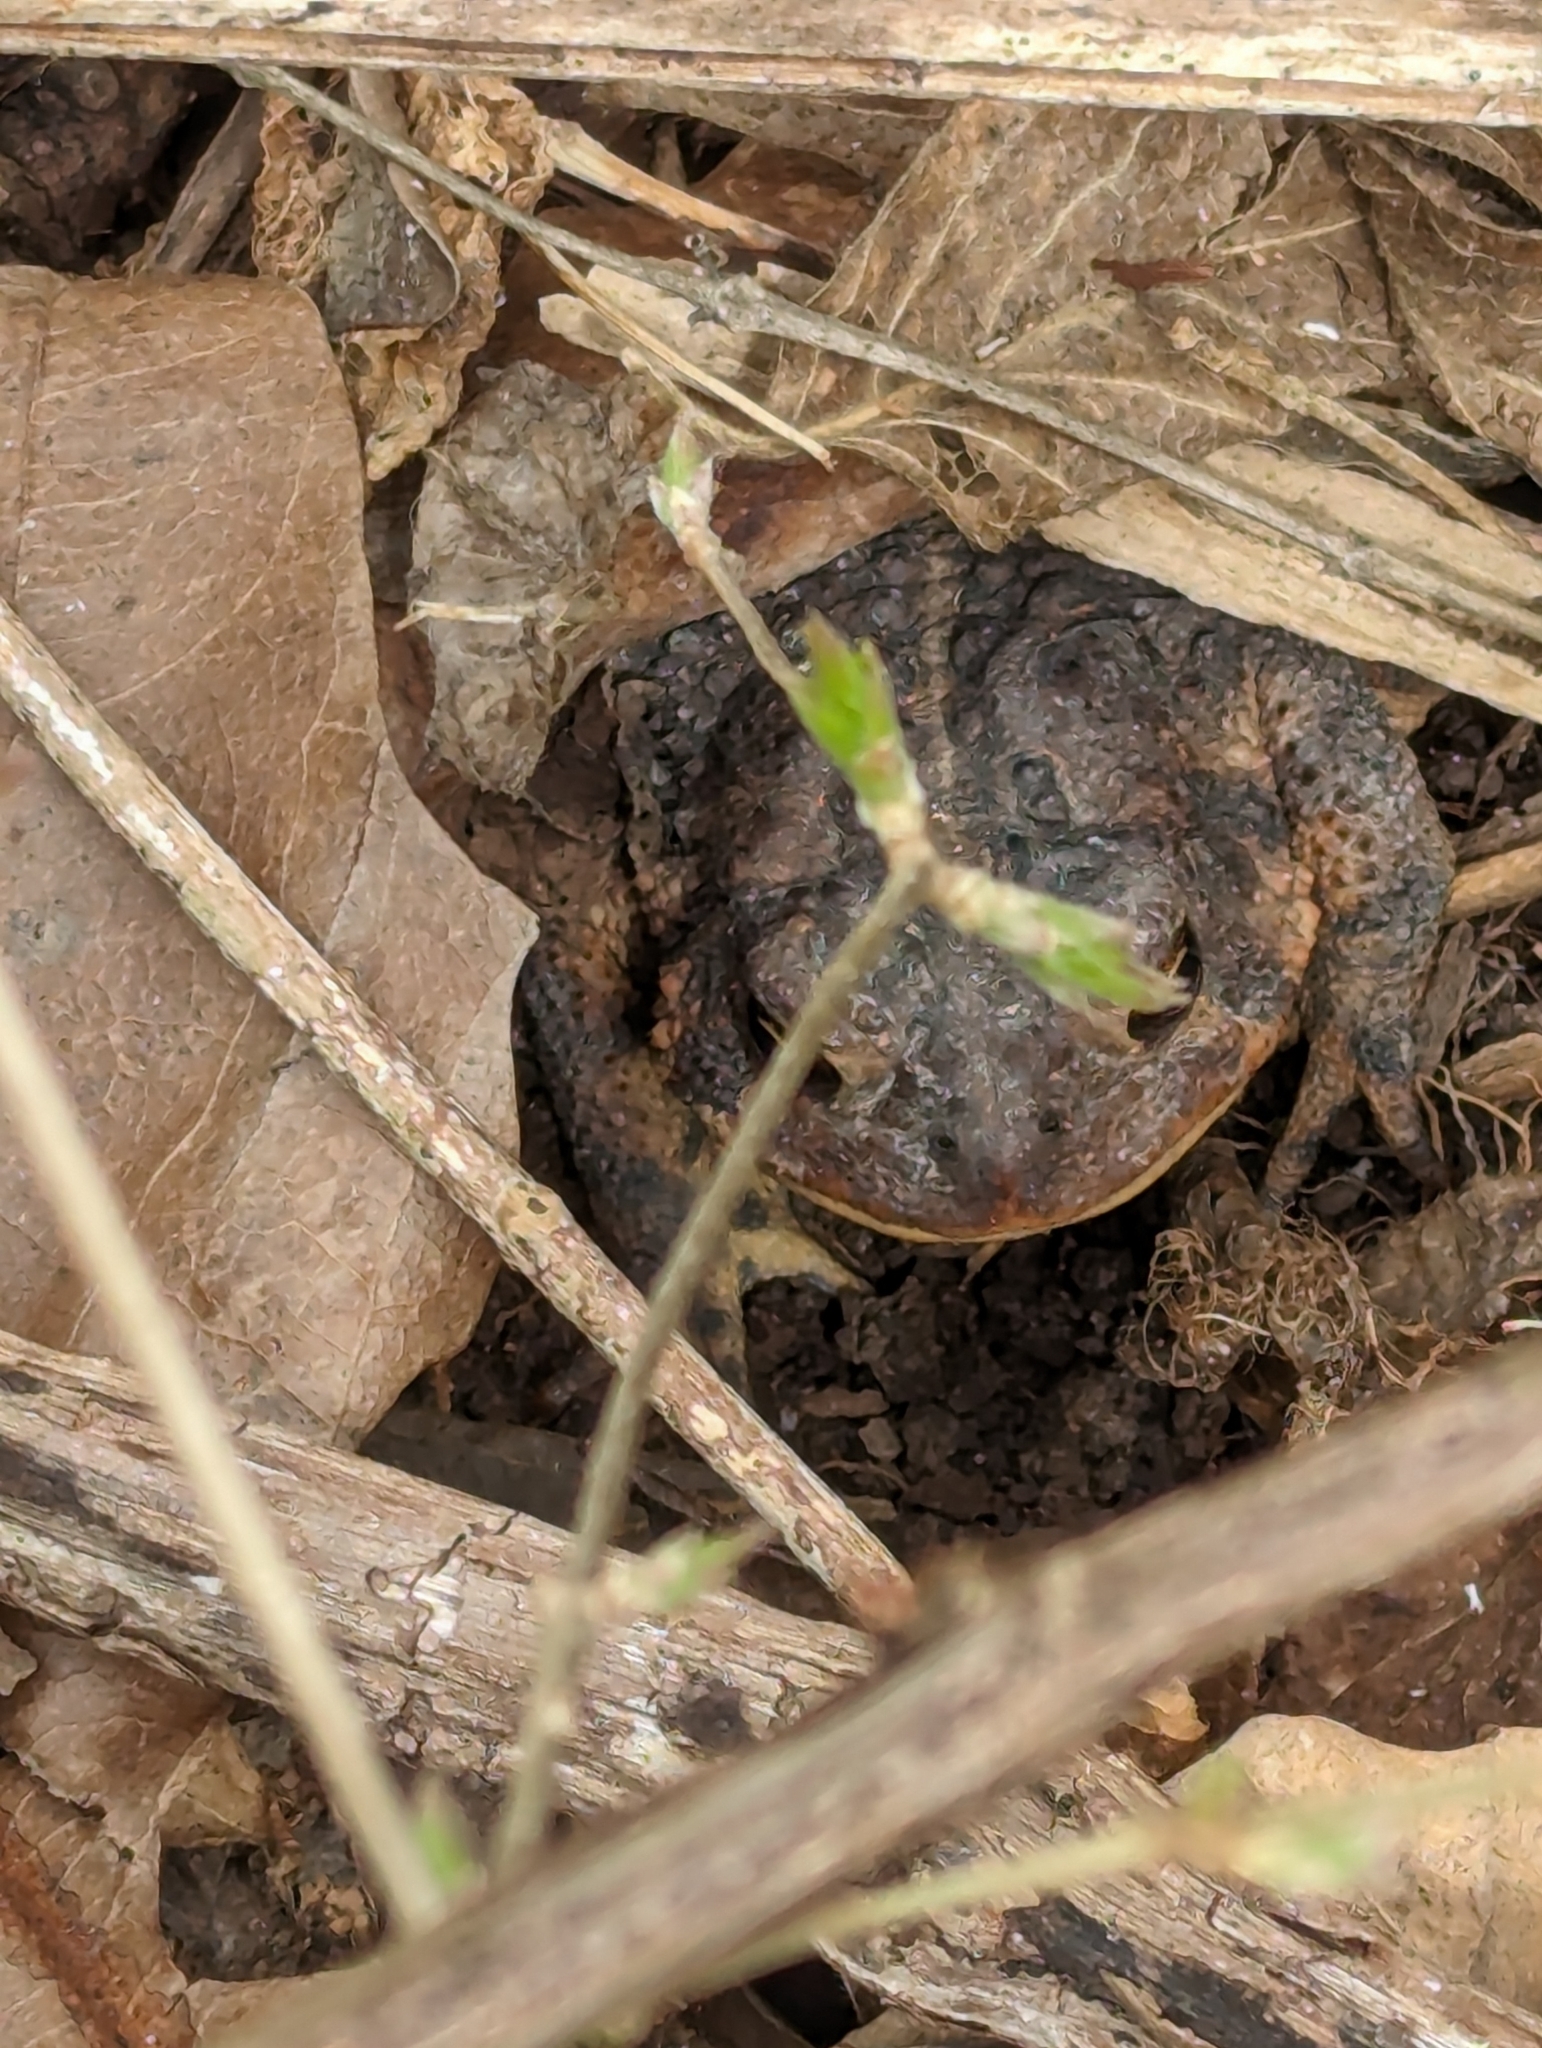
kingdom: Animalia
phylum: Chordata
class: Amphibia
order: Anura
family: Bufonidae
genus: Anaxyrus
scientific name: Anaxyrus americanus
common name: American toad
